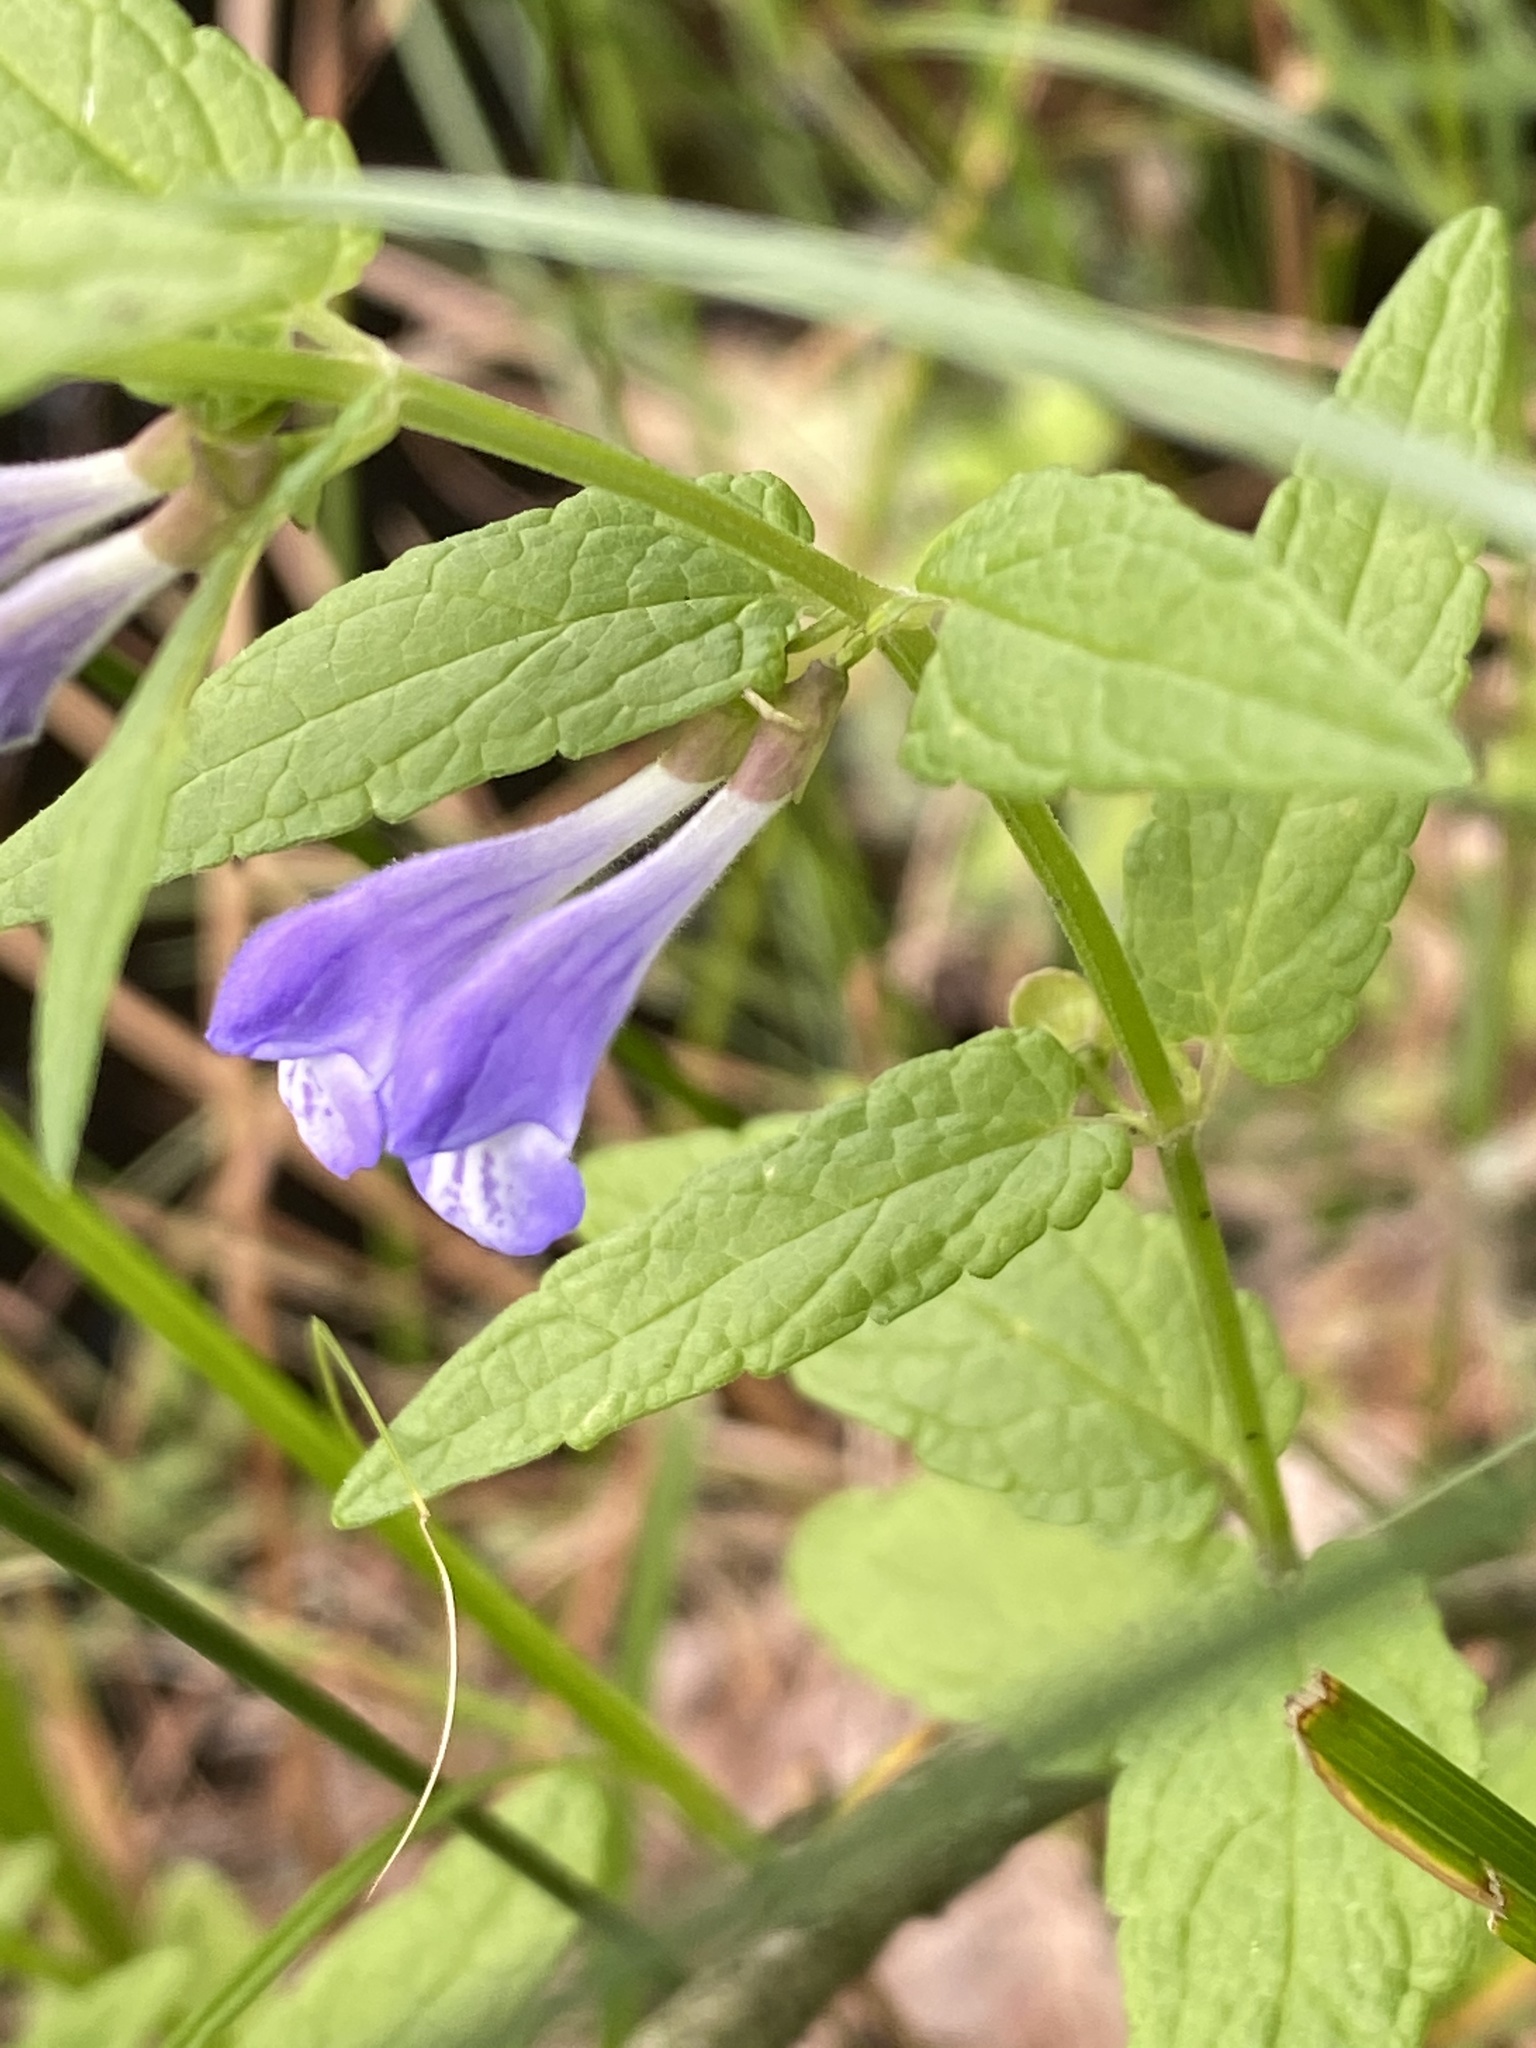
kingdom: Plantae
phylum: Tracheophyta
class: Magnoliopsida
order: Lamiales
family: Lamiaceae
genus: Scutellaria
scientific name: Scutellaria galericulata
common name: Skullcap
